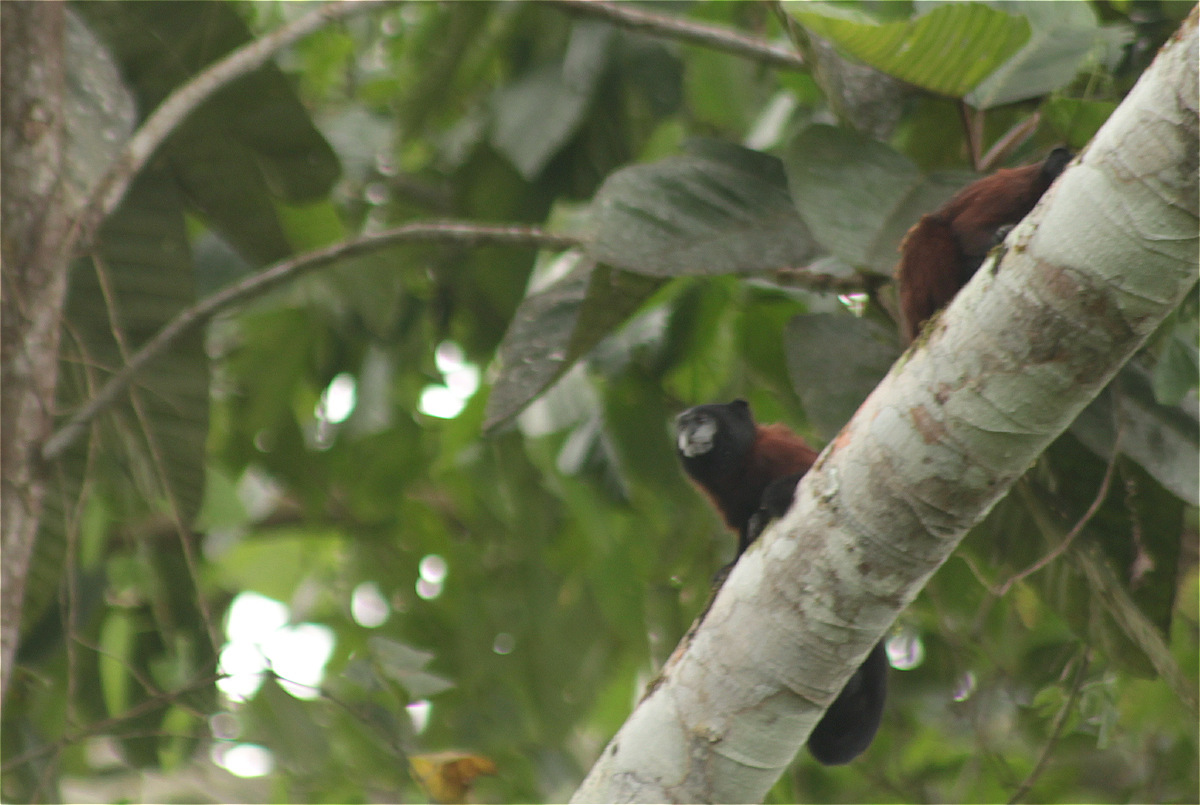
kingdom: Animalia
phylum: Chordata
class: Mammalia
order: Primates
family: Callitrichidae
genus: Leontocebus
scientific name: Leontocebus lagonotus
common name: Red-mantled saddle-back tamarin
